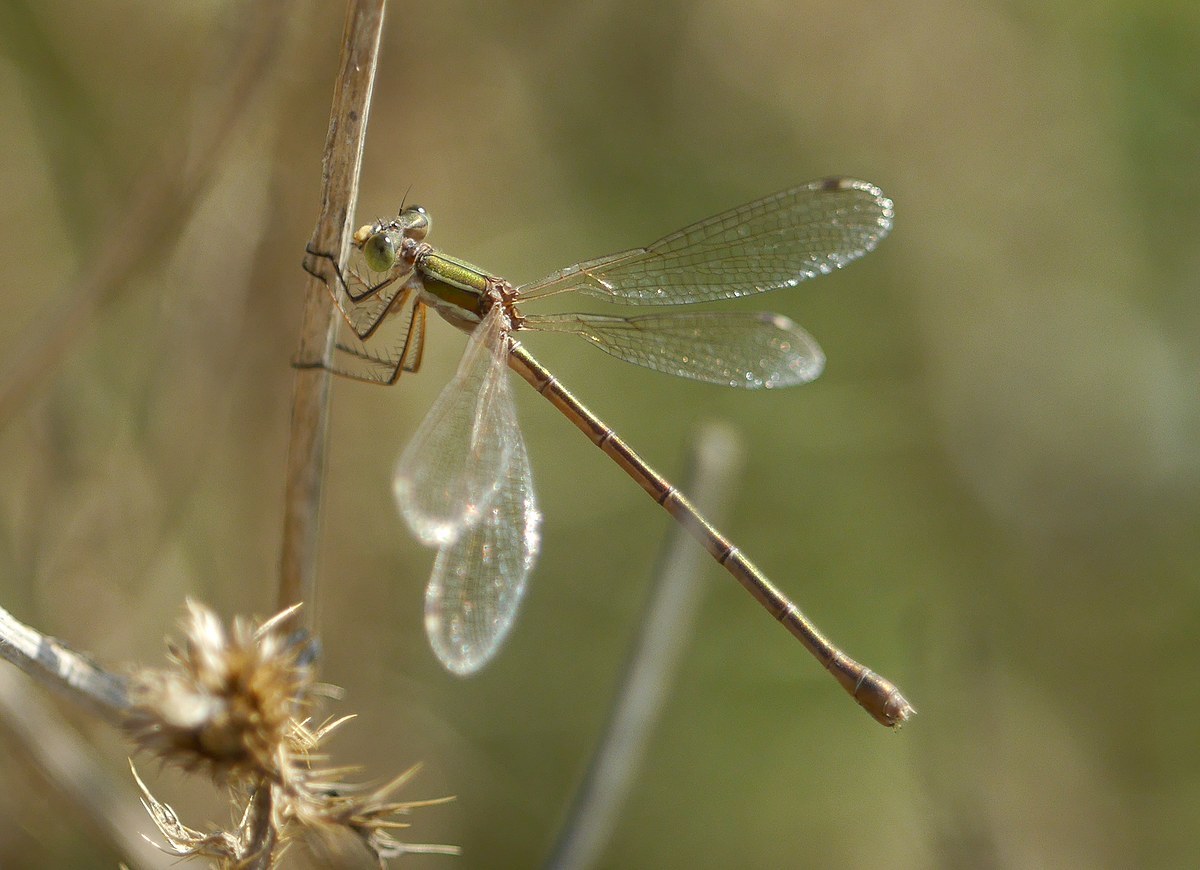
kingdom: Animalia
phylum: Arthropoda
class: Insecta
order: Odonata
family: Lestidae
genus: Lestes
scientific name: Lestes barbarus
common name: Migrant spreadwing
